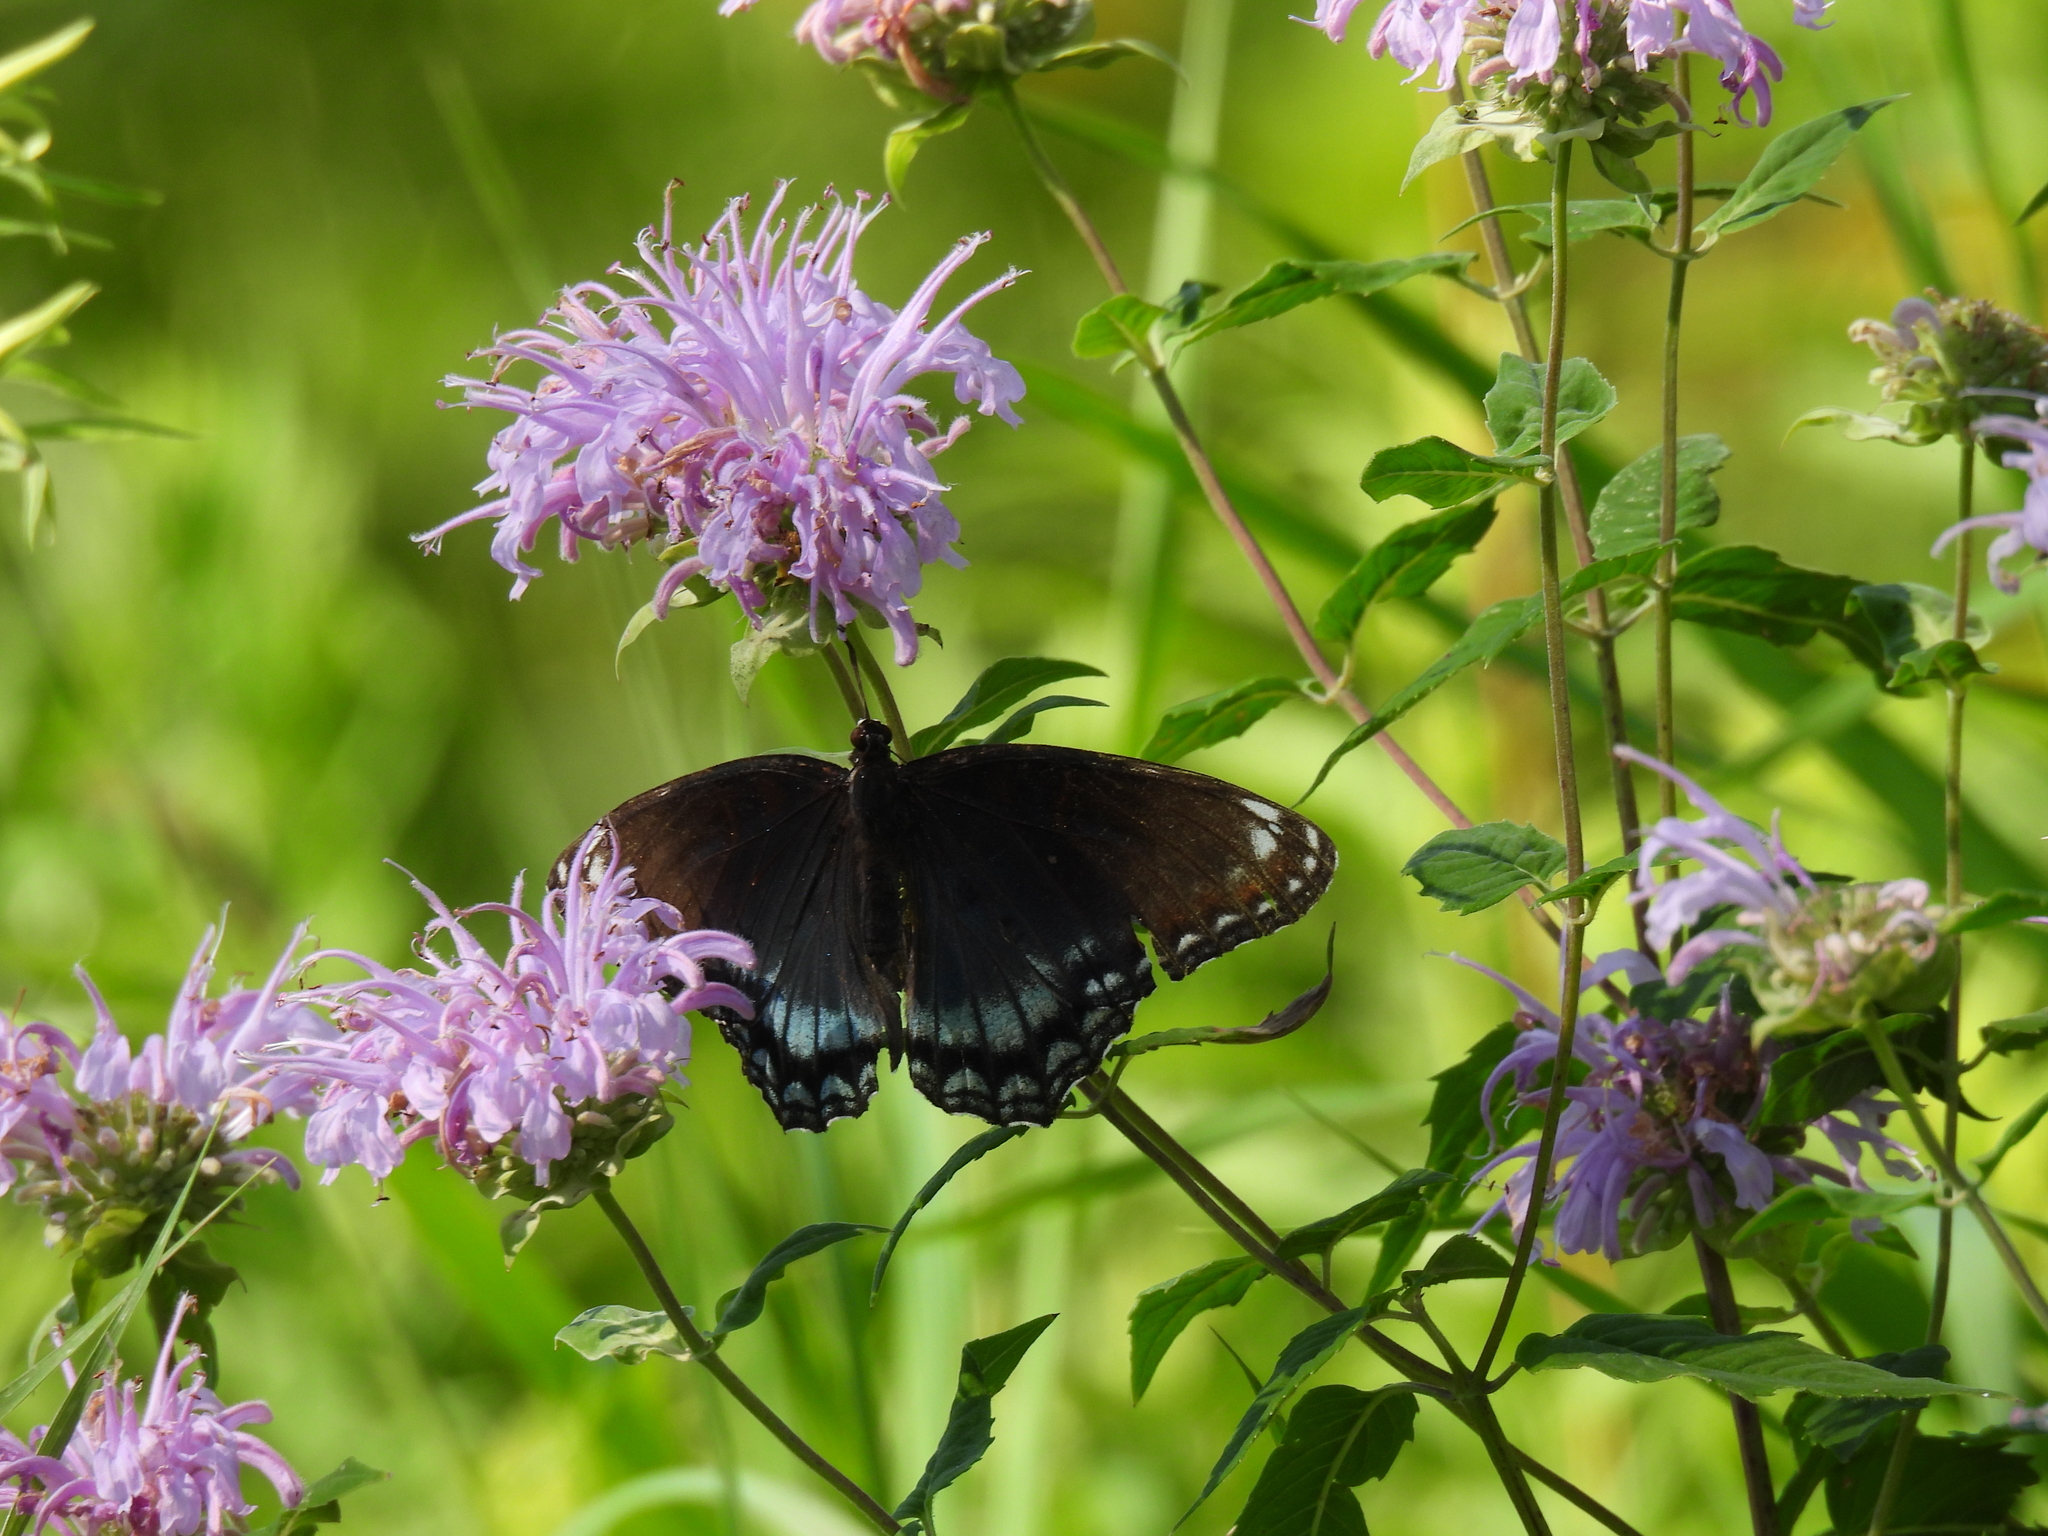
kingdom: Animalia
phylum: Arthropoda
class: Insecta
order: Lepidoptera
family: Nymphalidae
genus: Limenitis
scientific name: Limenitis astyanax
